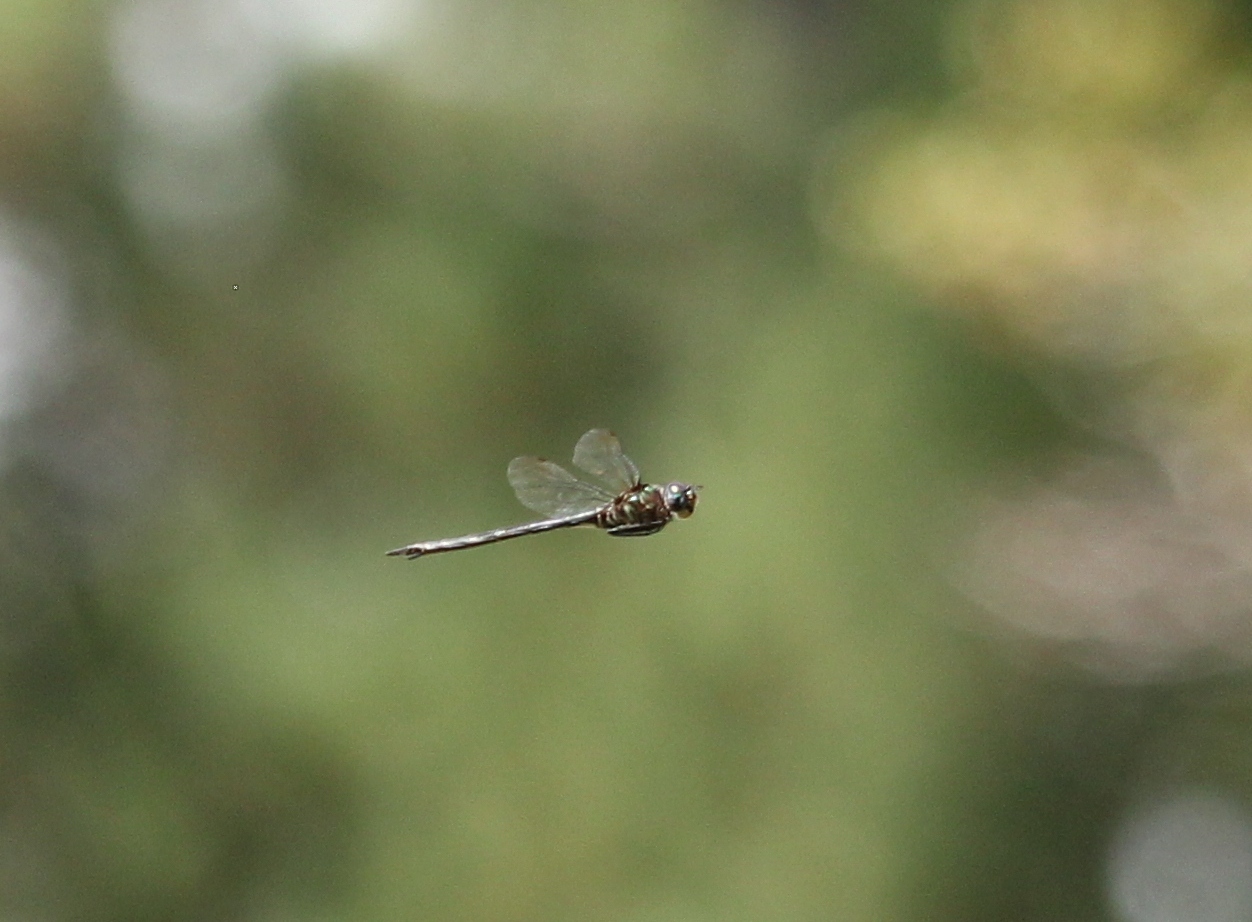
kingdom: Animalia
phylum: Arthropoda
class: Insecta
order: Odonata
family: Corduliidae
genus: Somatochlora
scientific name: Somatochlora filosa
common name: Fine-lined emerald
